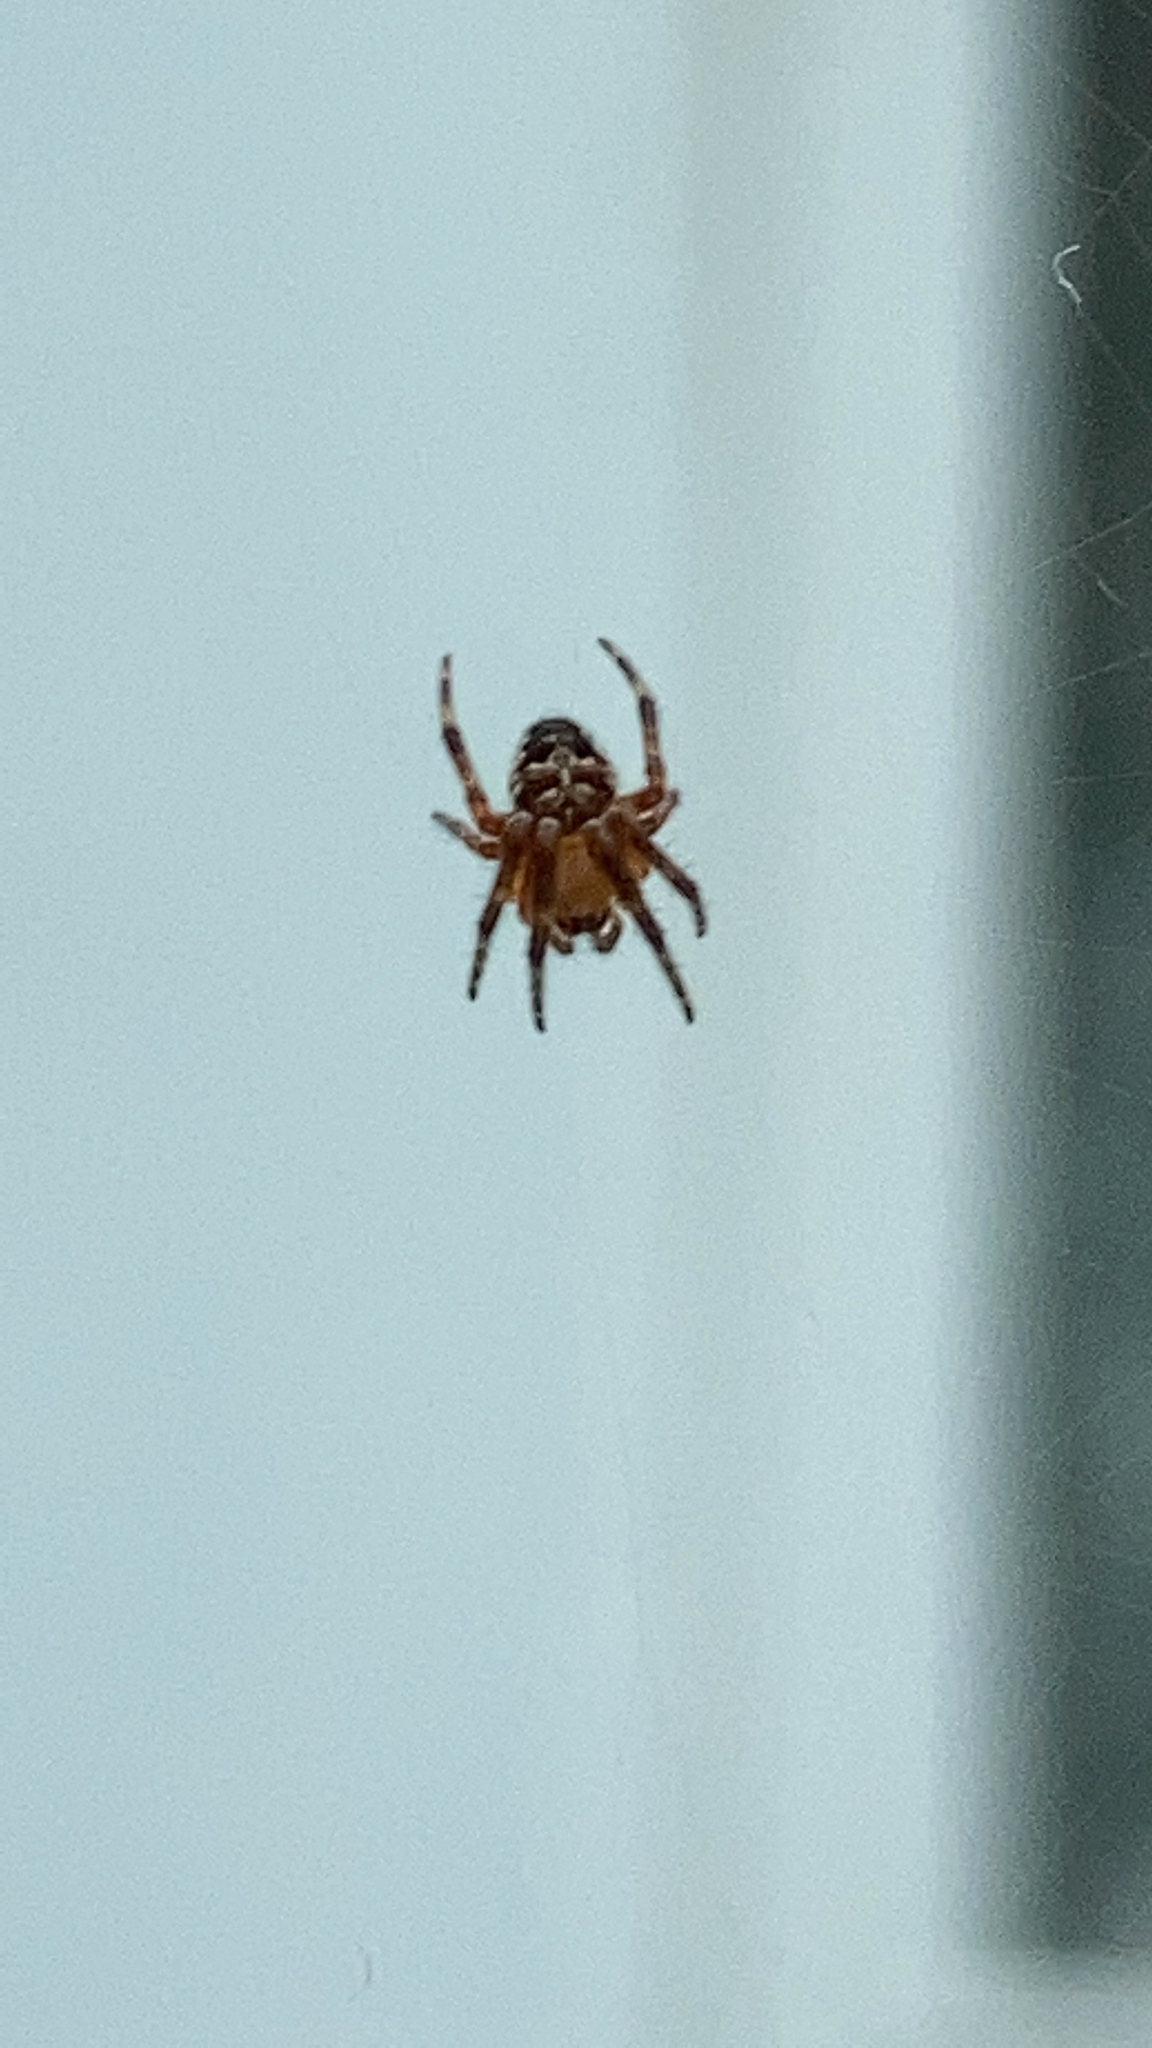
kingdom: Animalia
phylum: Arthropoda
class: Arachnida
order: Araneae
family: Araneidae
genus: Araneus
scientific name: Araneus diadematus
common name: Cross orbweaver
